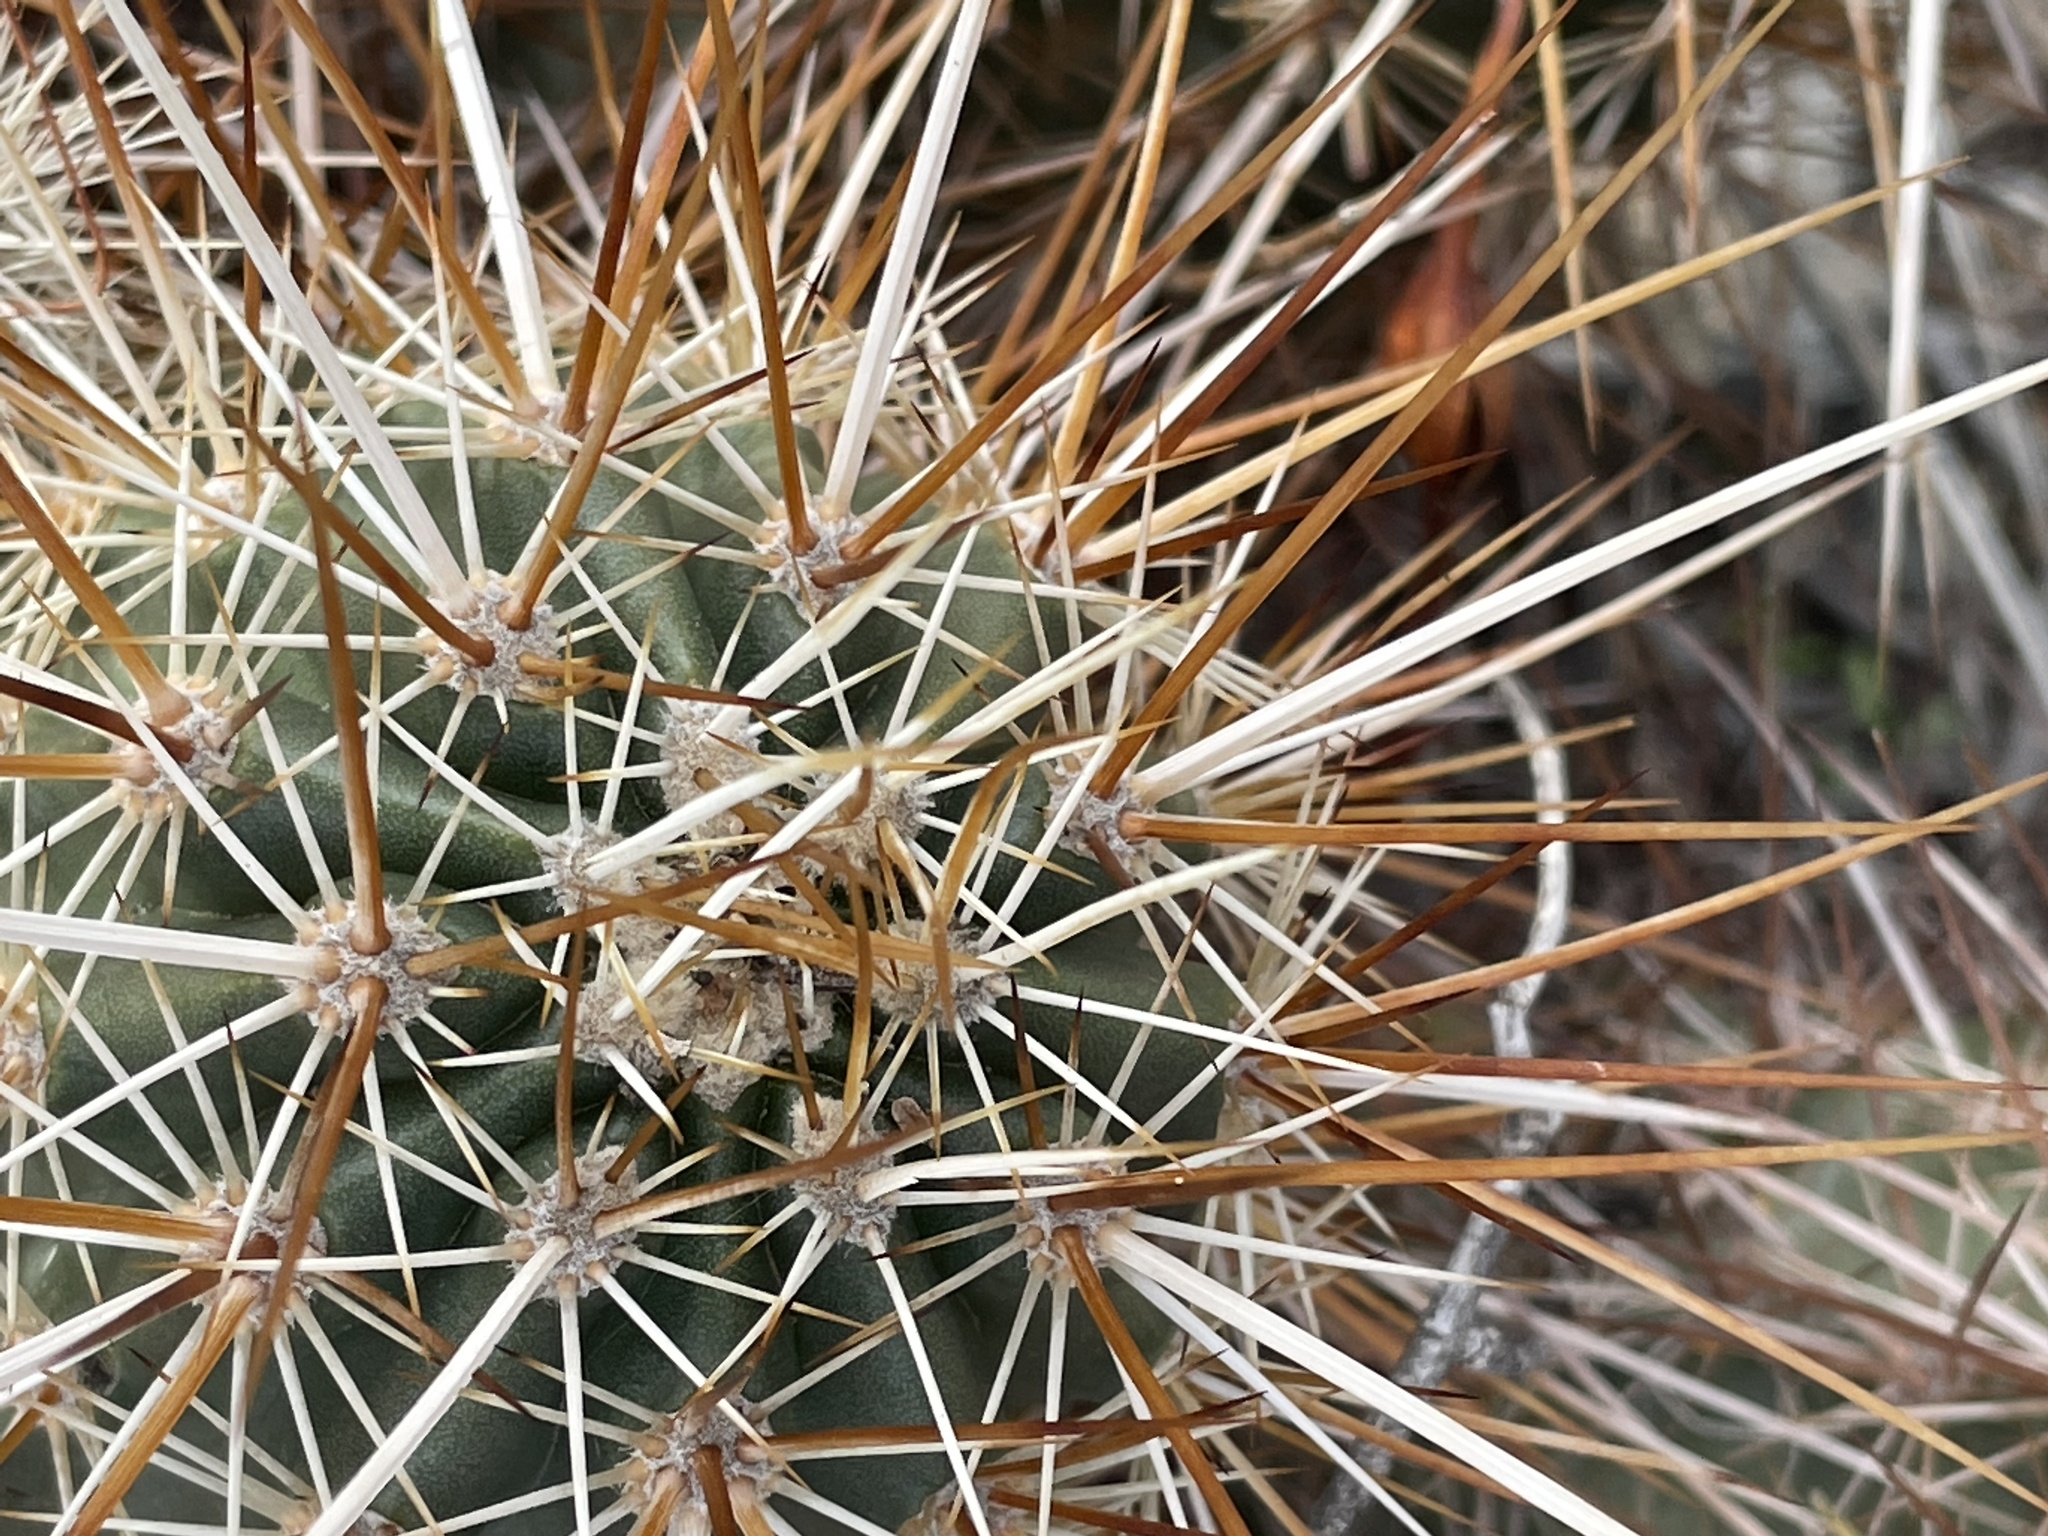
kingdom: Plantae
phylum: Tracheophyta
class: Magnoliopsida
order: Caryophyllales
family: Cactaceae
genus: Echinocereus
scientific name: Echinocereus engelmannii
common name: Engelmann's hedgehog cactus
